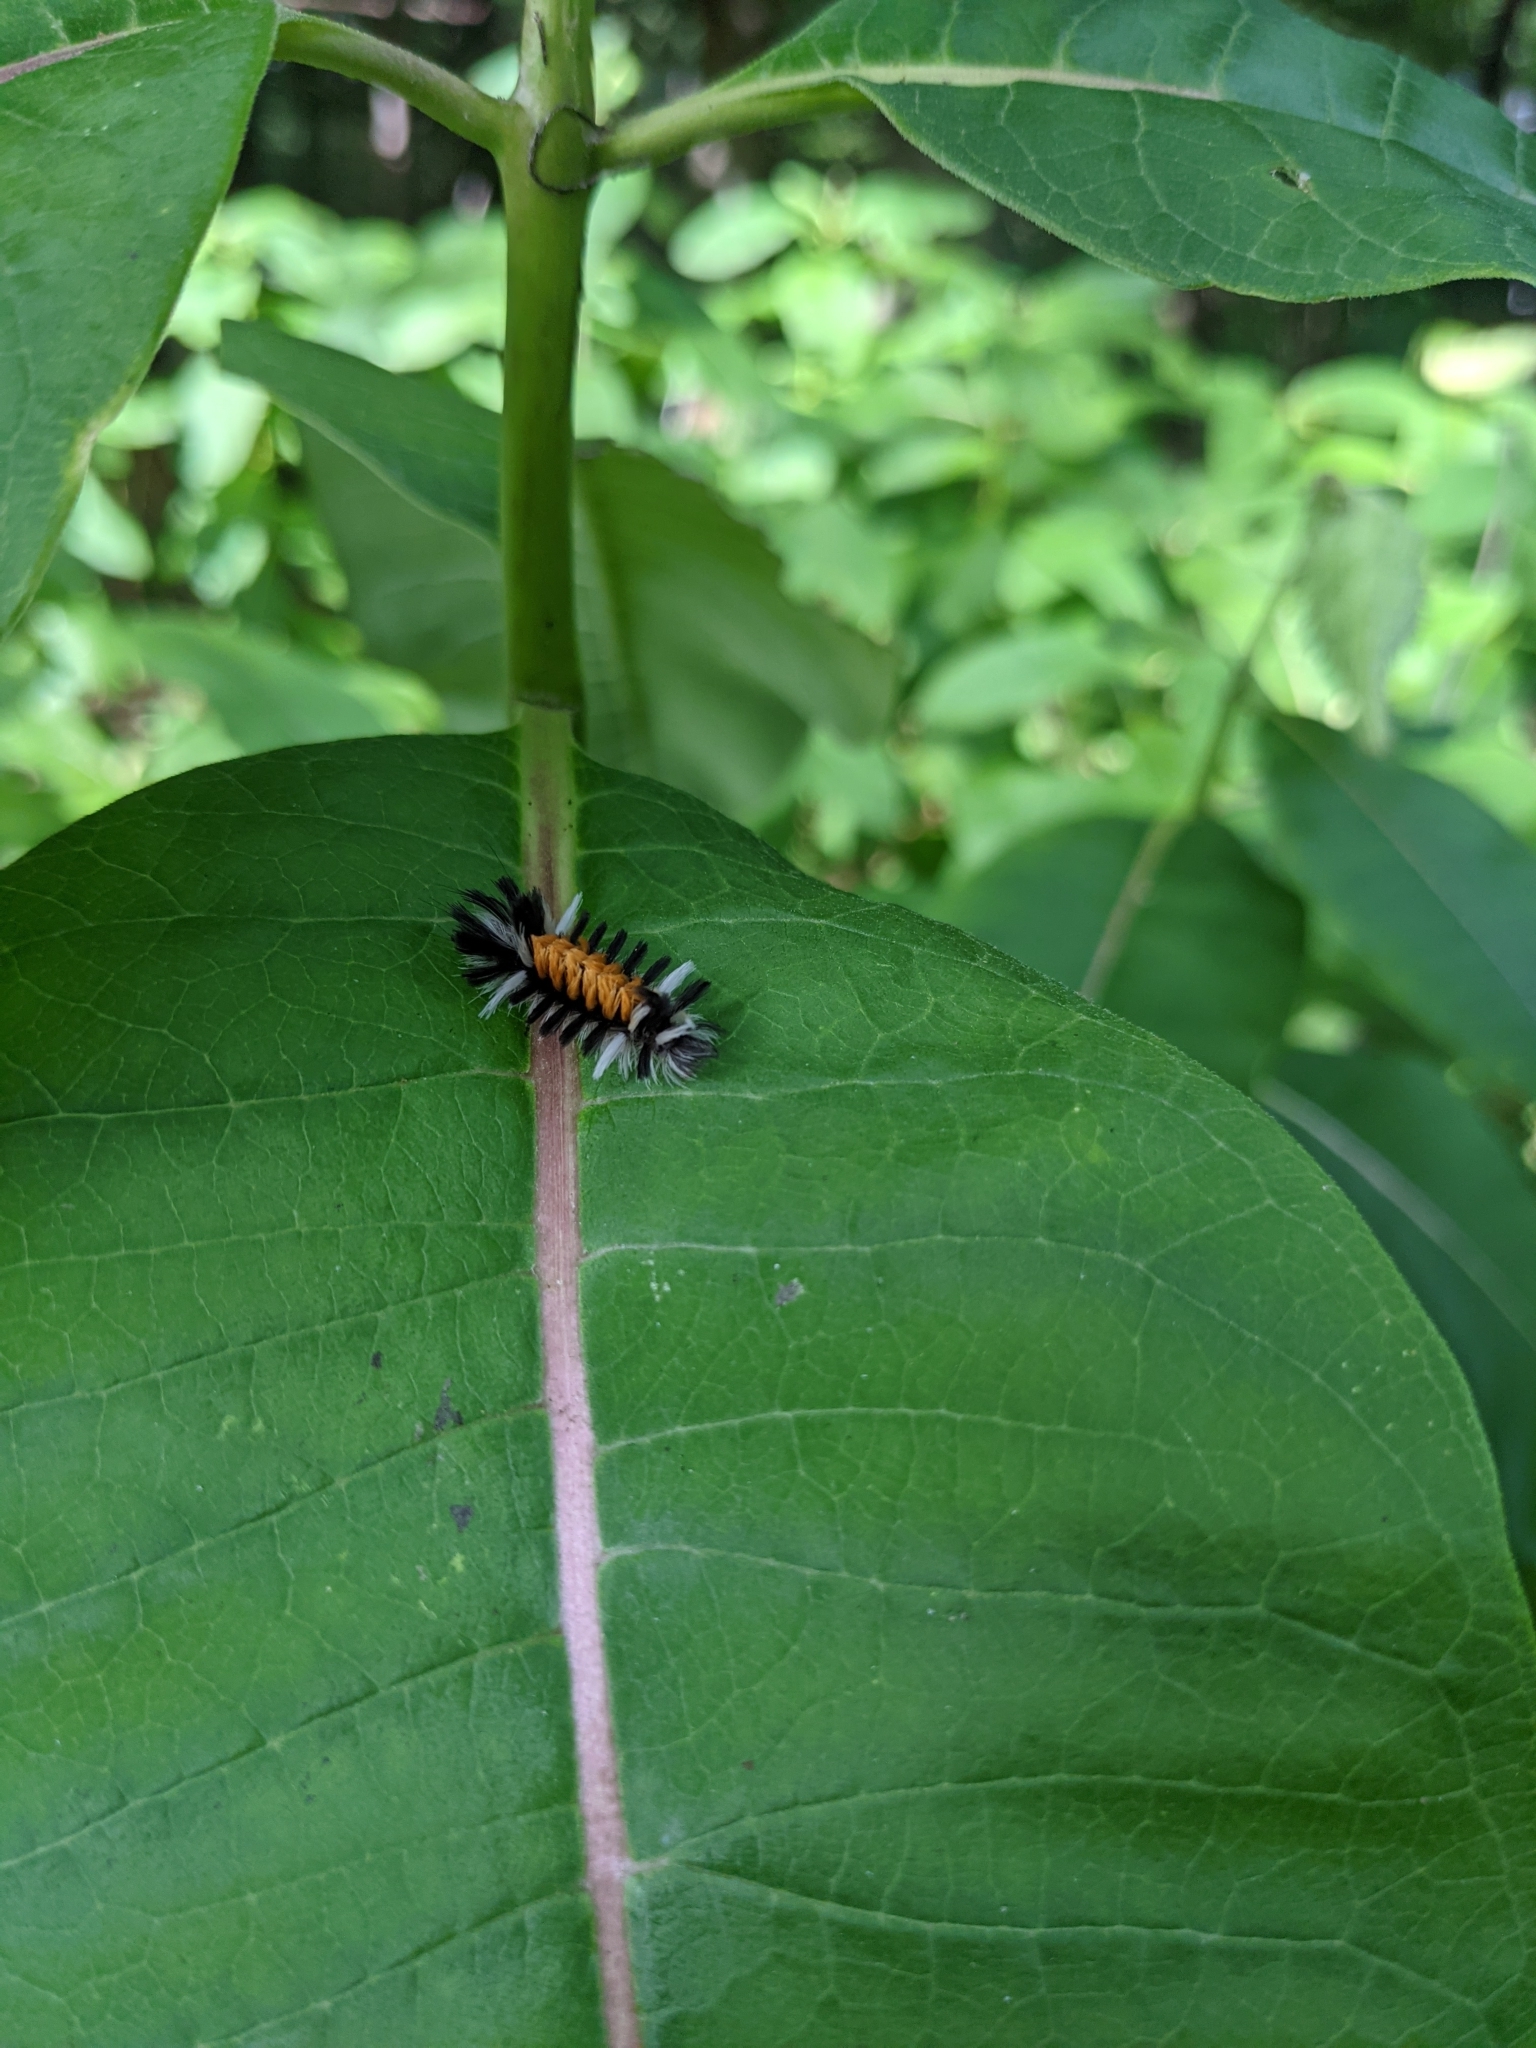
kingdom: Animalia
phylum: Arthropoda
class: Insecta
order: Lepidoptera
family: Erebidae
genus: Euchaetes
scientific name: Euchaetes egle
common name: Milkweed tussock moth
